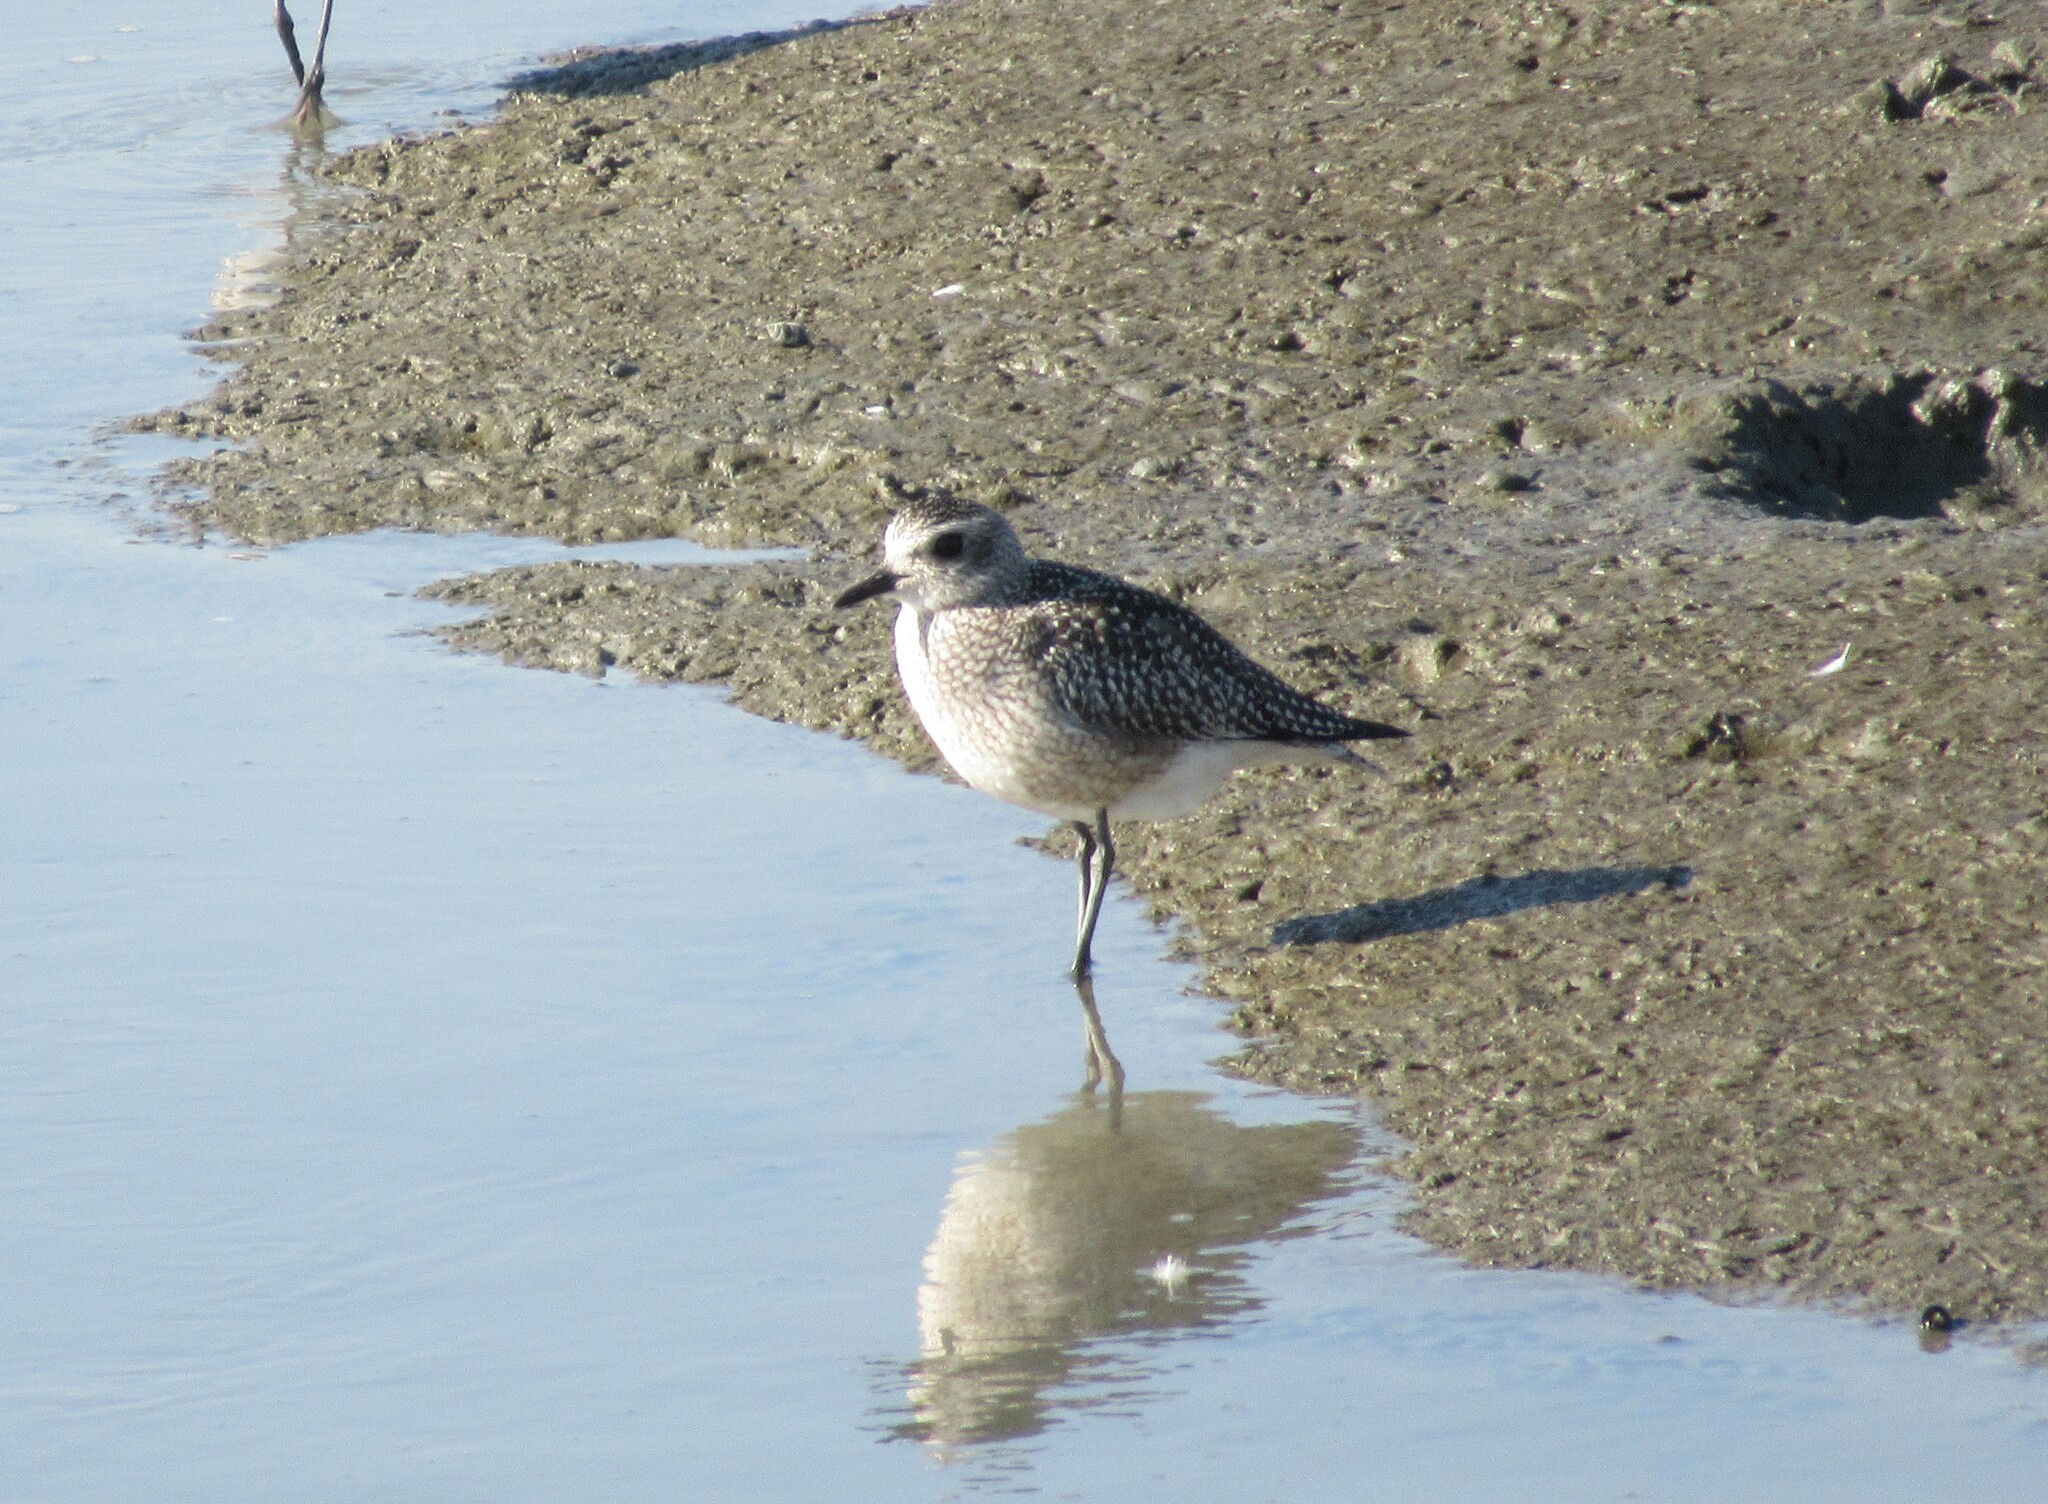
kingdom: Animalia
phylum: Chordata
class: Aves
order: Charadriiformes
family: Charadriidae
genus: Pluvialis
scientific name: Pluvialis squatarola
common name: Grey plover
